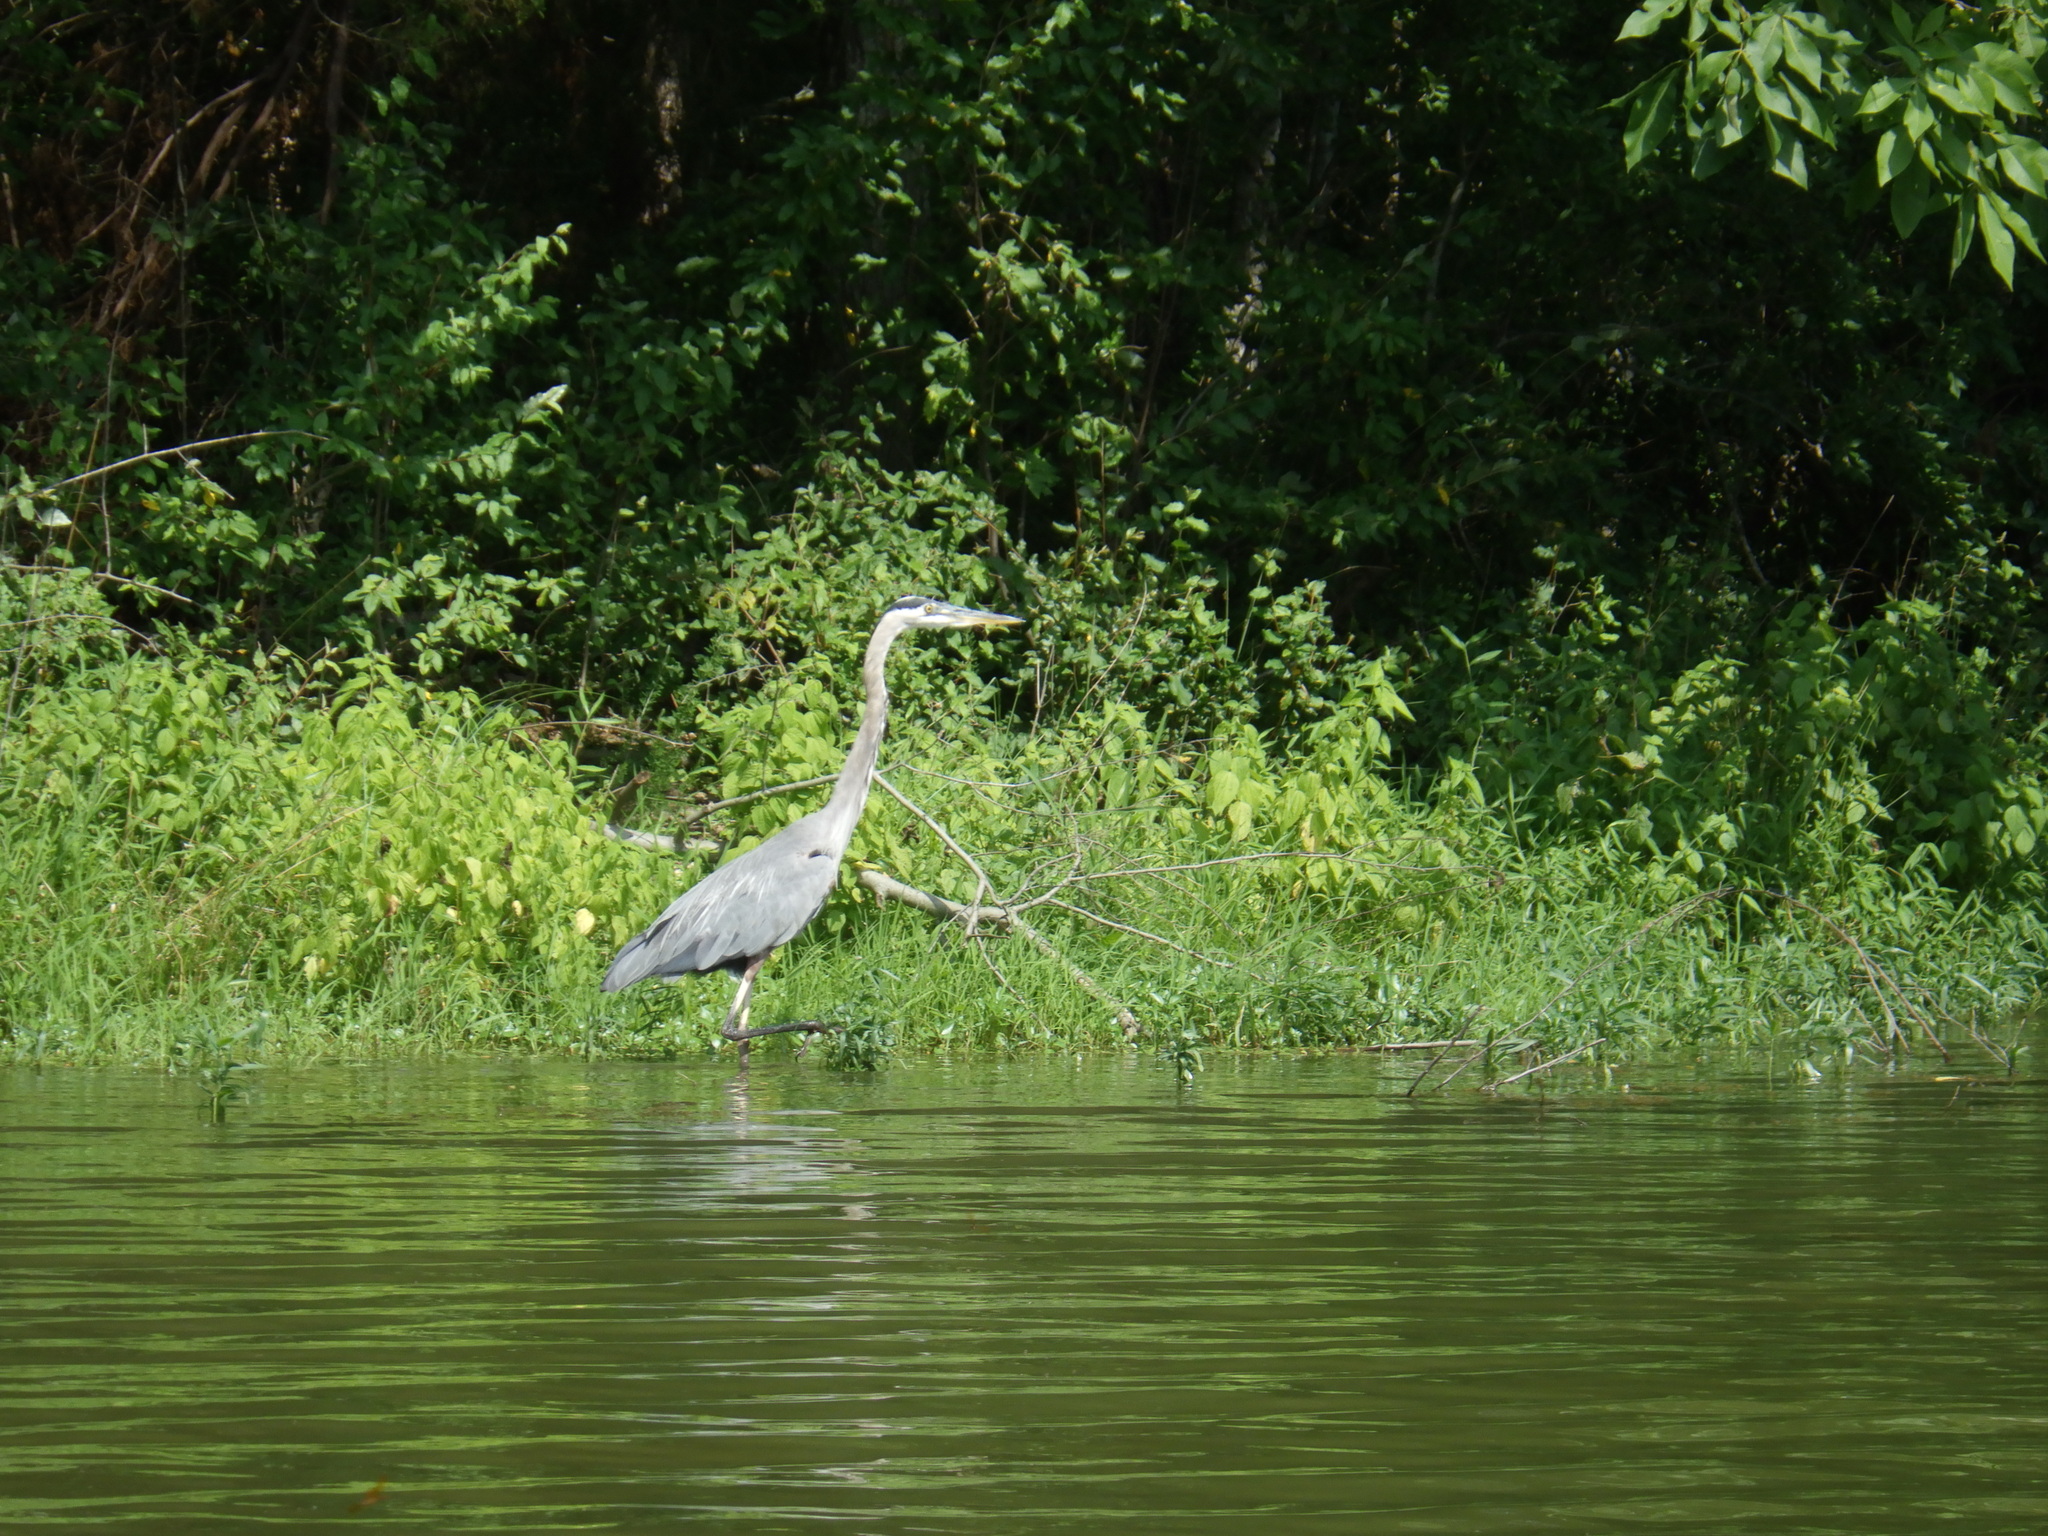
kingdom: Animalia
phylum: Chordata
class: Aves
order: Pelecaniformes
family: Ardeidae
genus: Ardea
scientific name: Ardea herodias
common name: Great blue heron
